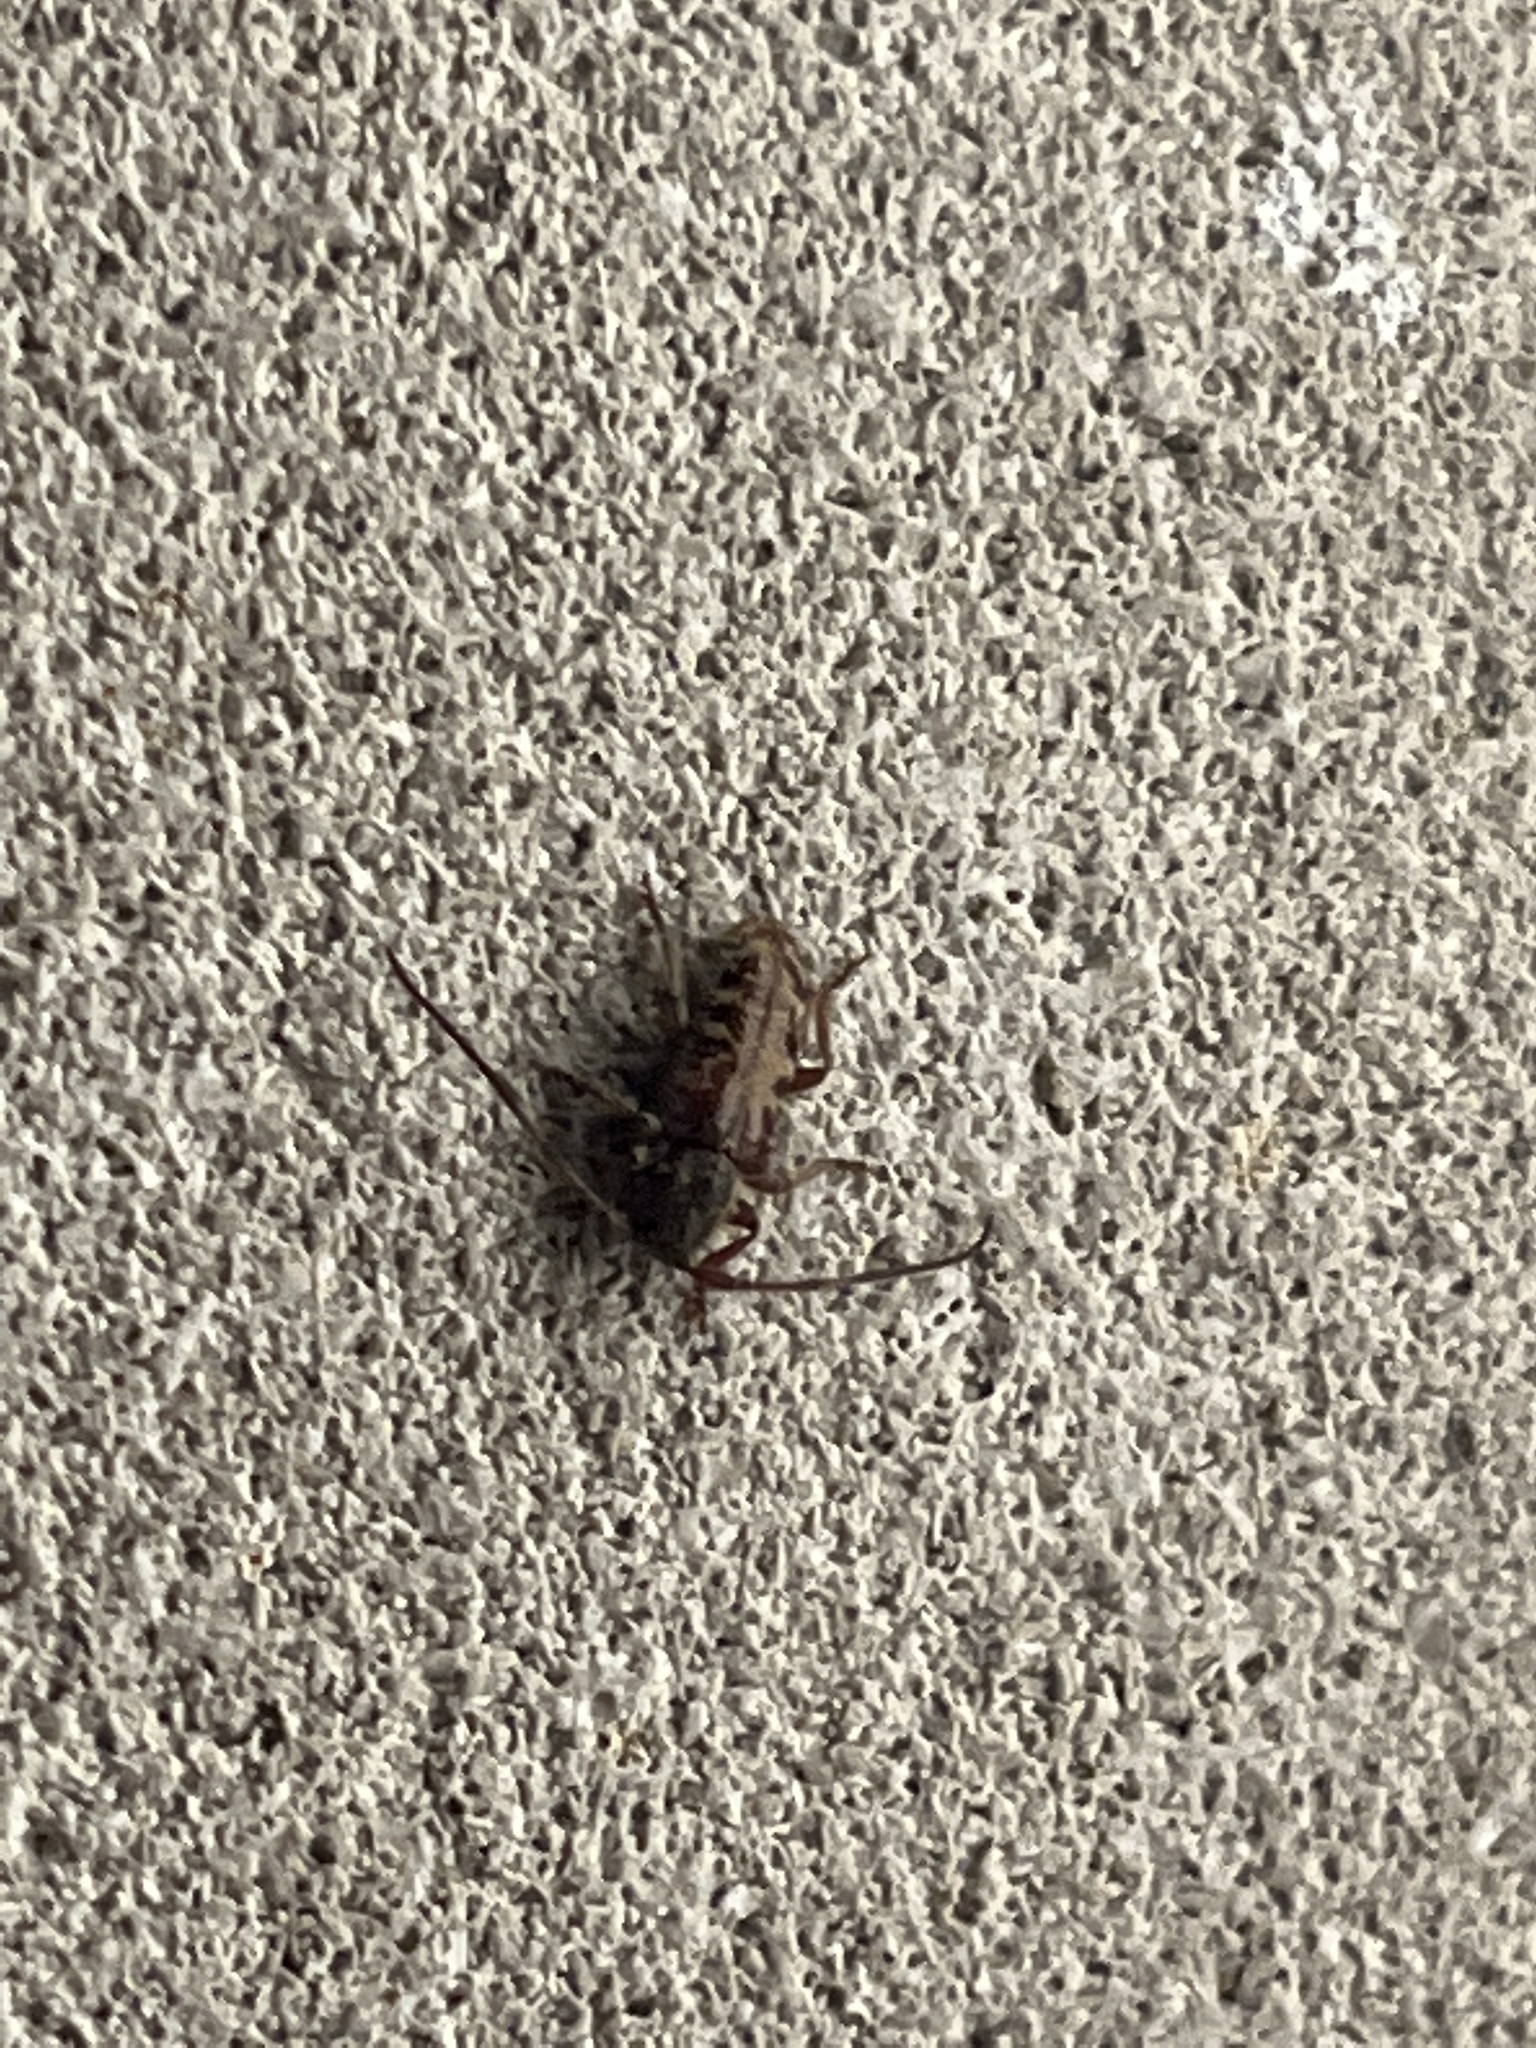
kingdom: Animalia
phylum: Arthropoda
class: Insecta
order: Coleoptera
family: Cerambycidae
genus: Eupogonius
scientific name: Eupogonius tomentosus
